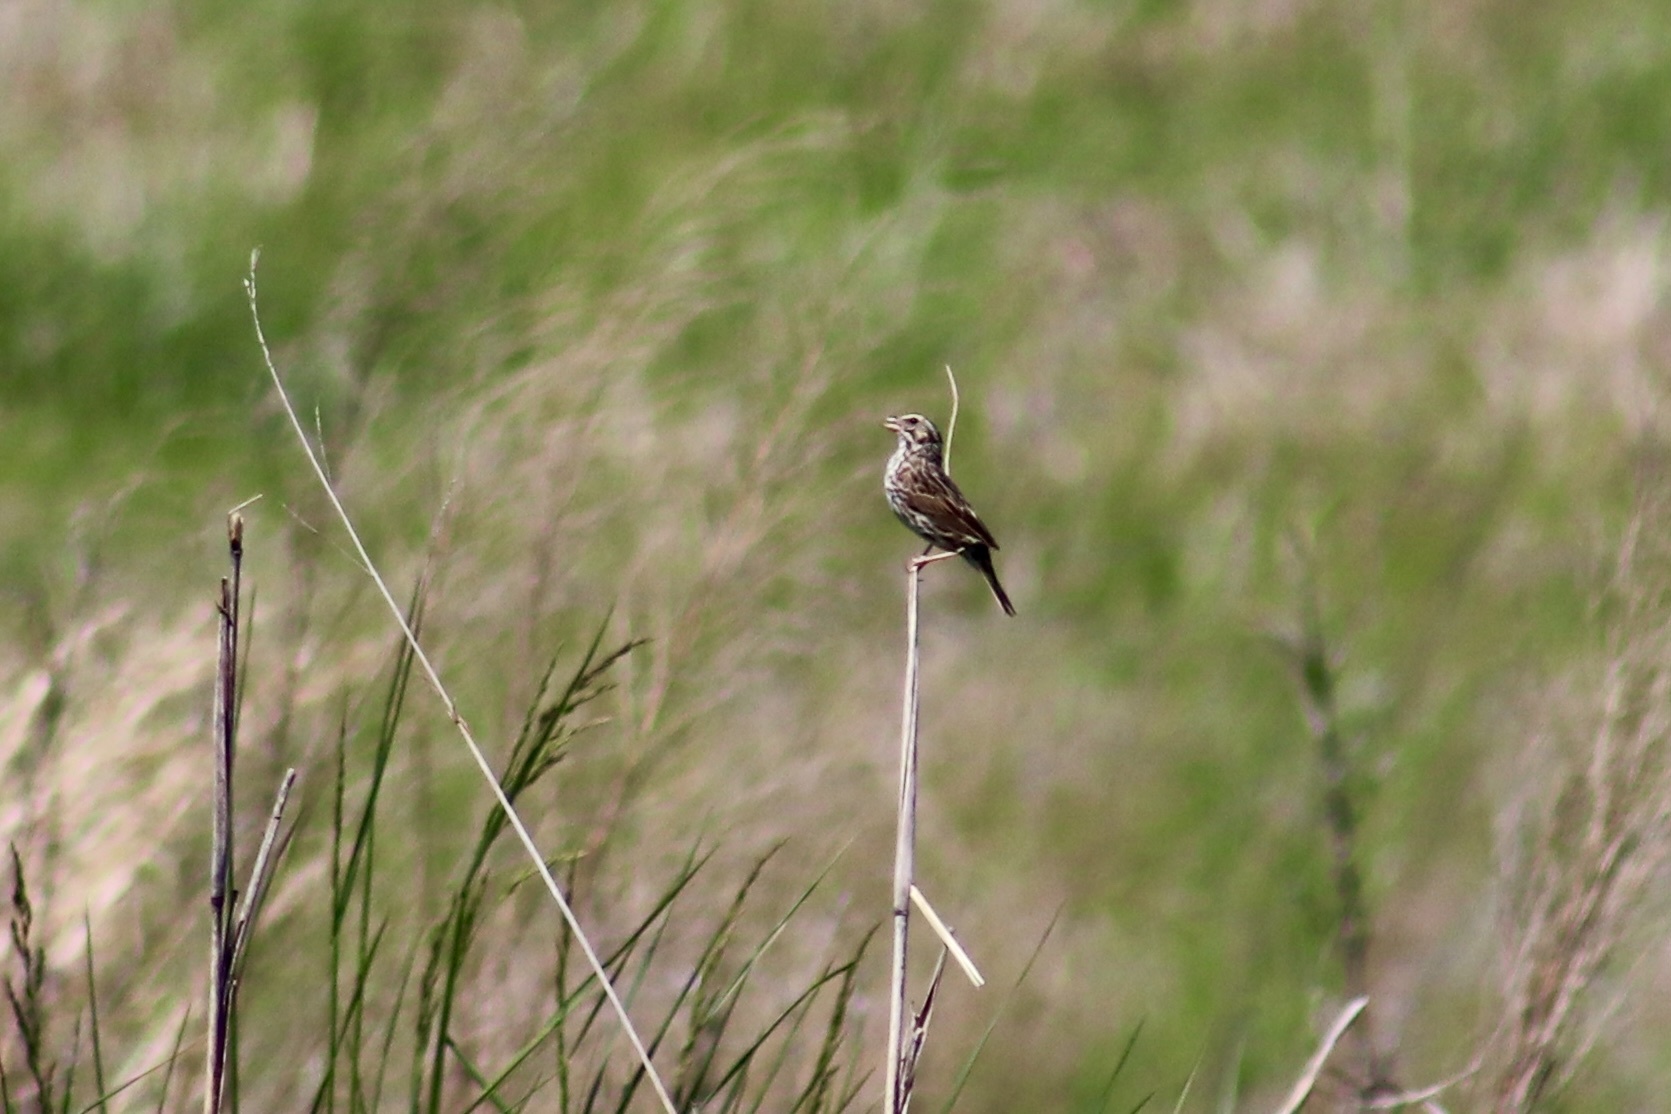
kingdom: Animalia
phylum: Chordata
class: Aves
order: Passeriformes
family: Passerellidae
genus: Passerculus
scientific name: Passerculus sandwichensis
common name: Savannah sparrow
